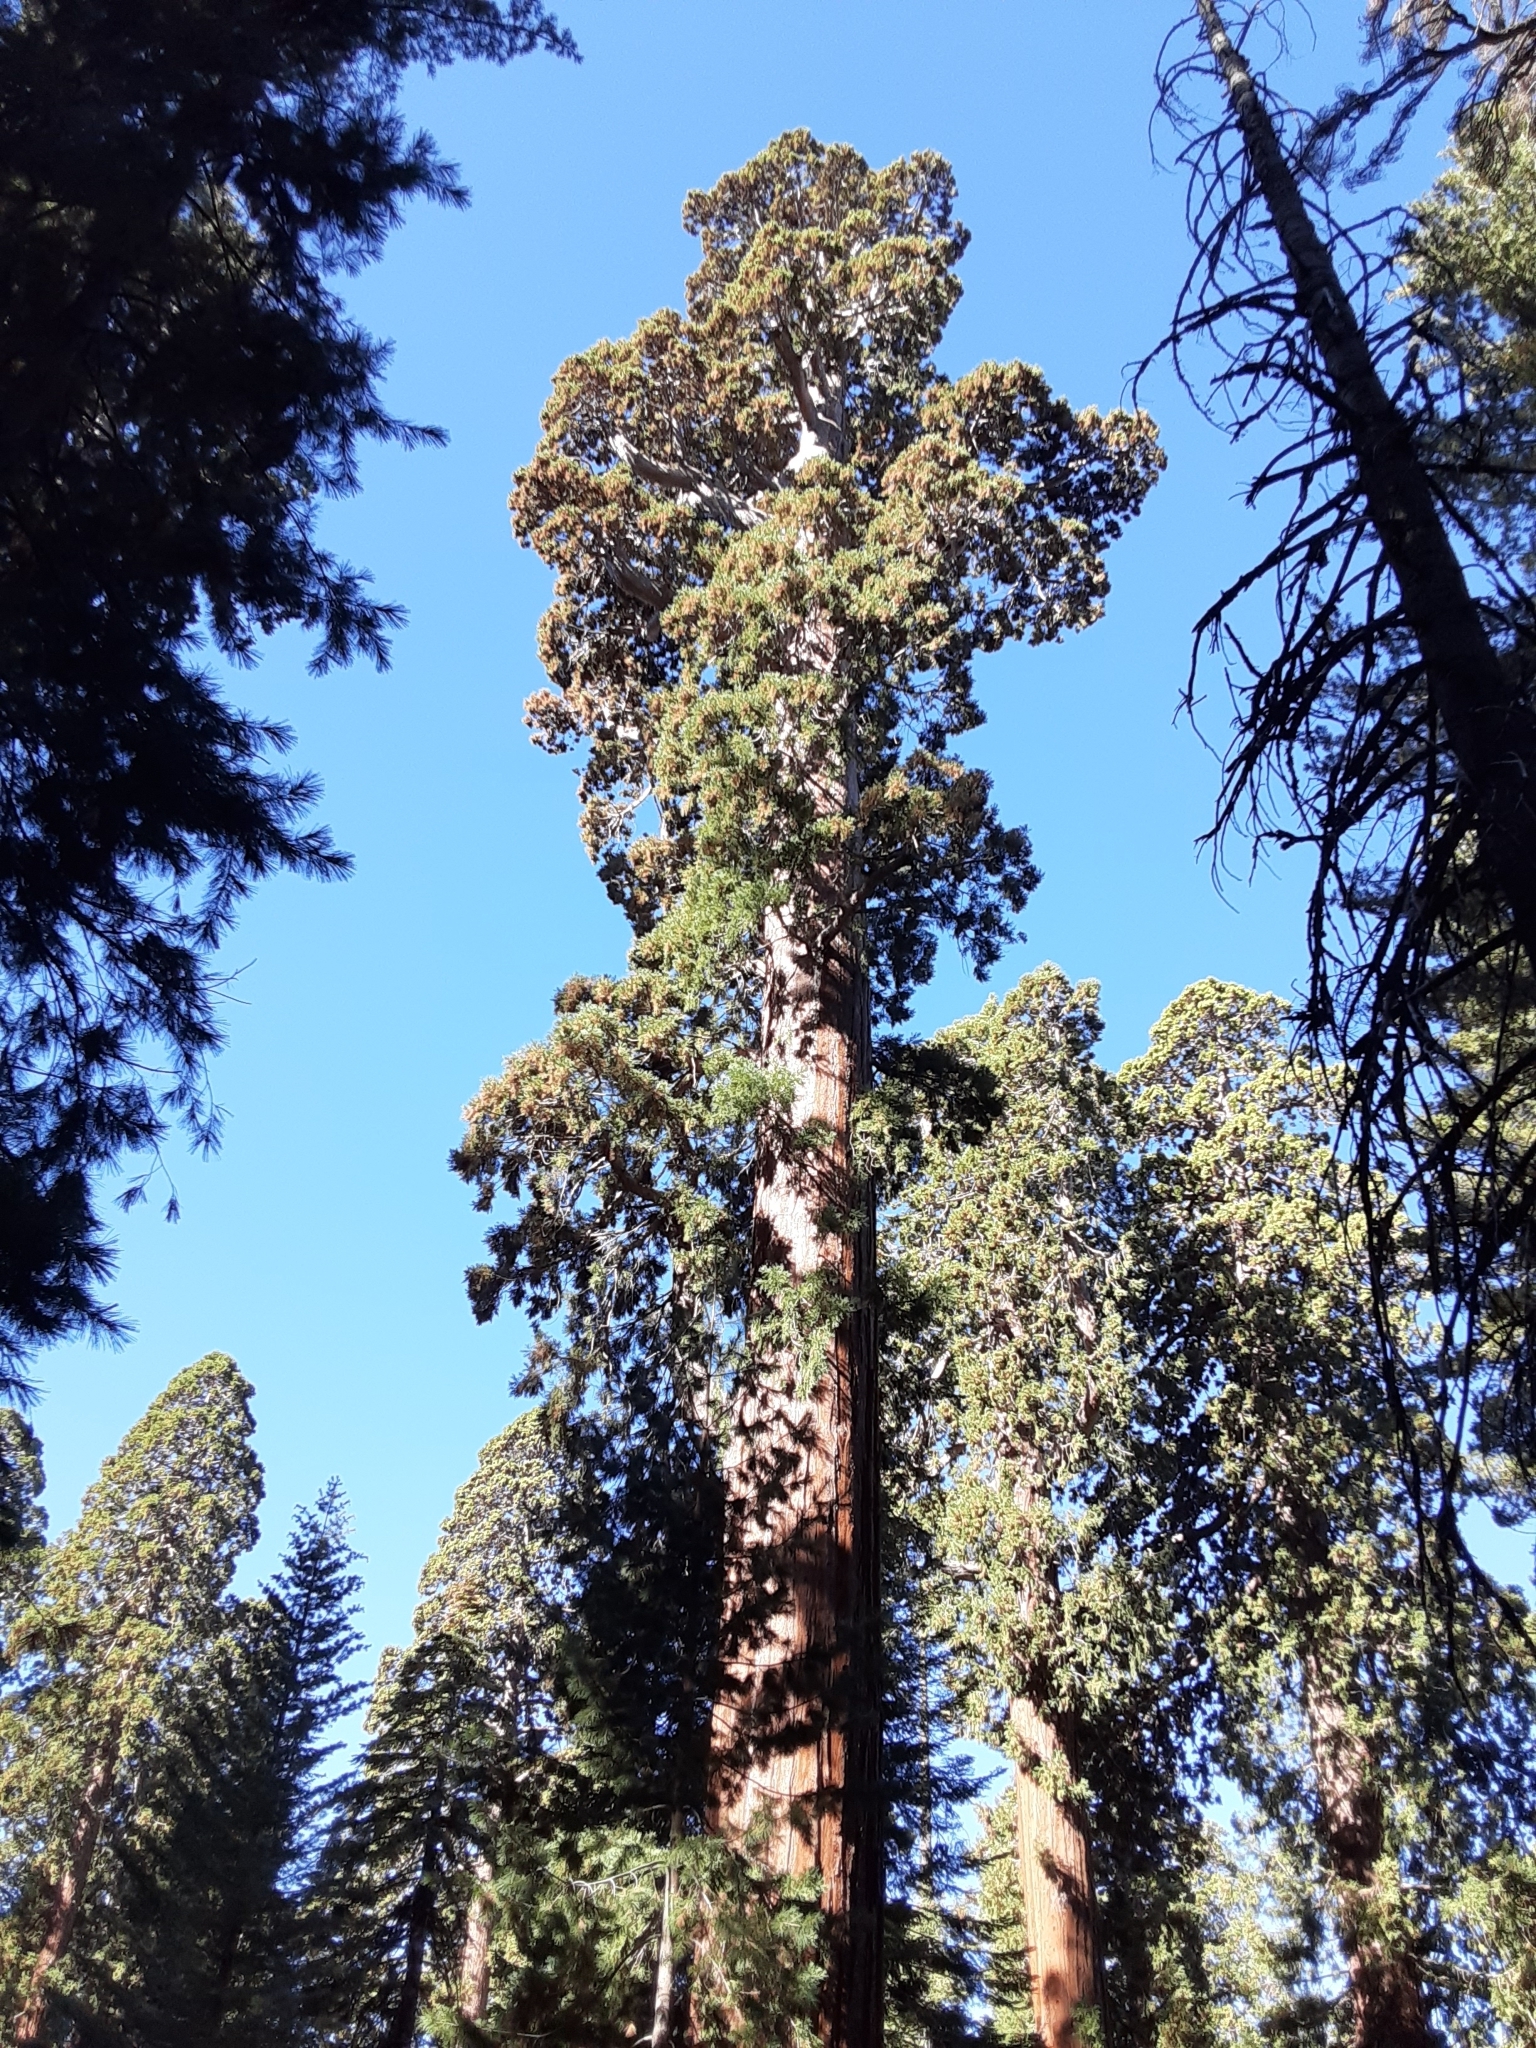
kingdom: Plantae
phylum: Tracheophyta
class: Pinopsida
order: Pinales
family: Cupressaceae
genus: Sequoiadendron
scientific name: Sequoiadendron giganteum
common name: Wellingtonia
